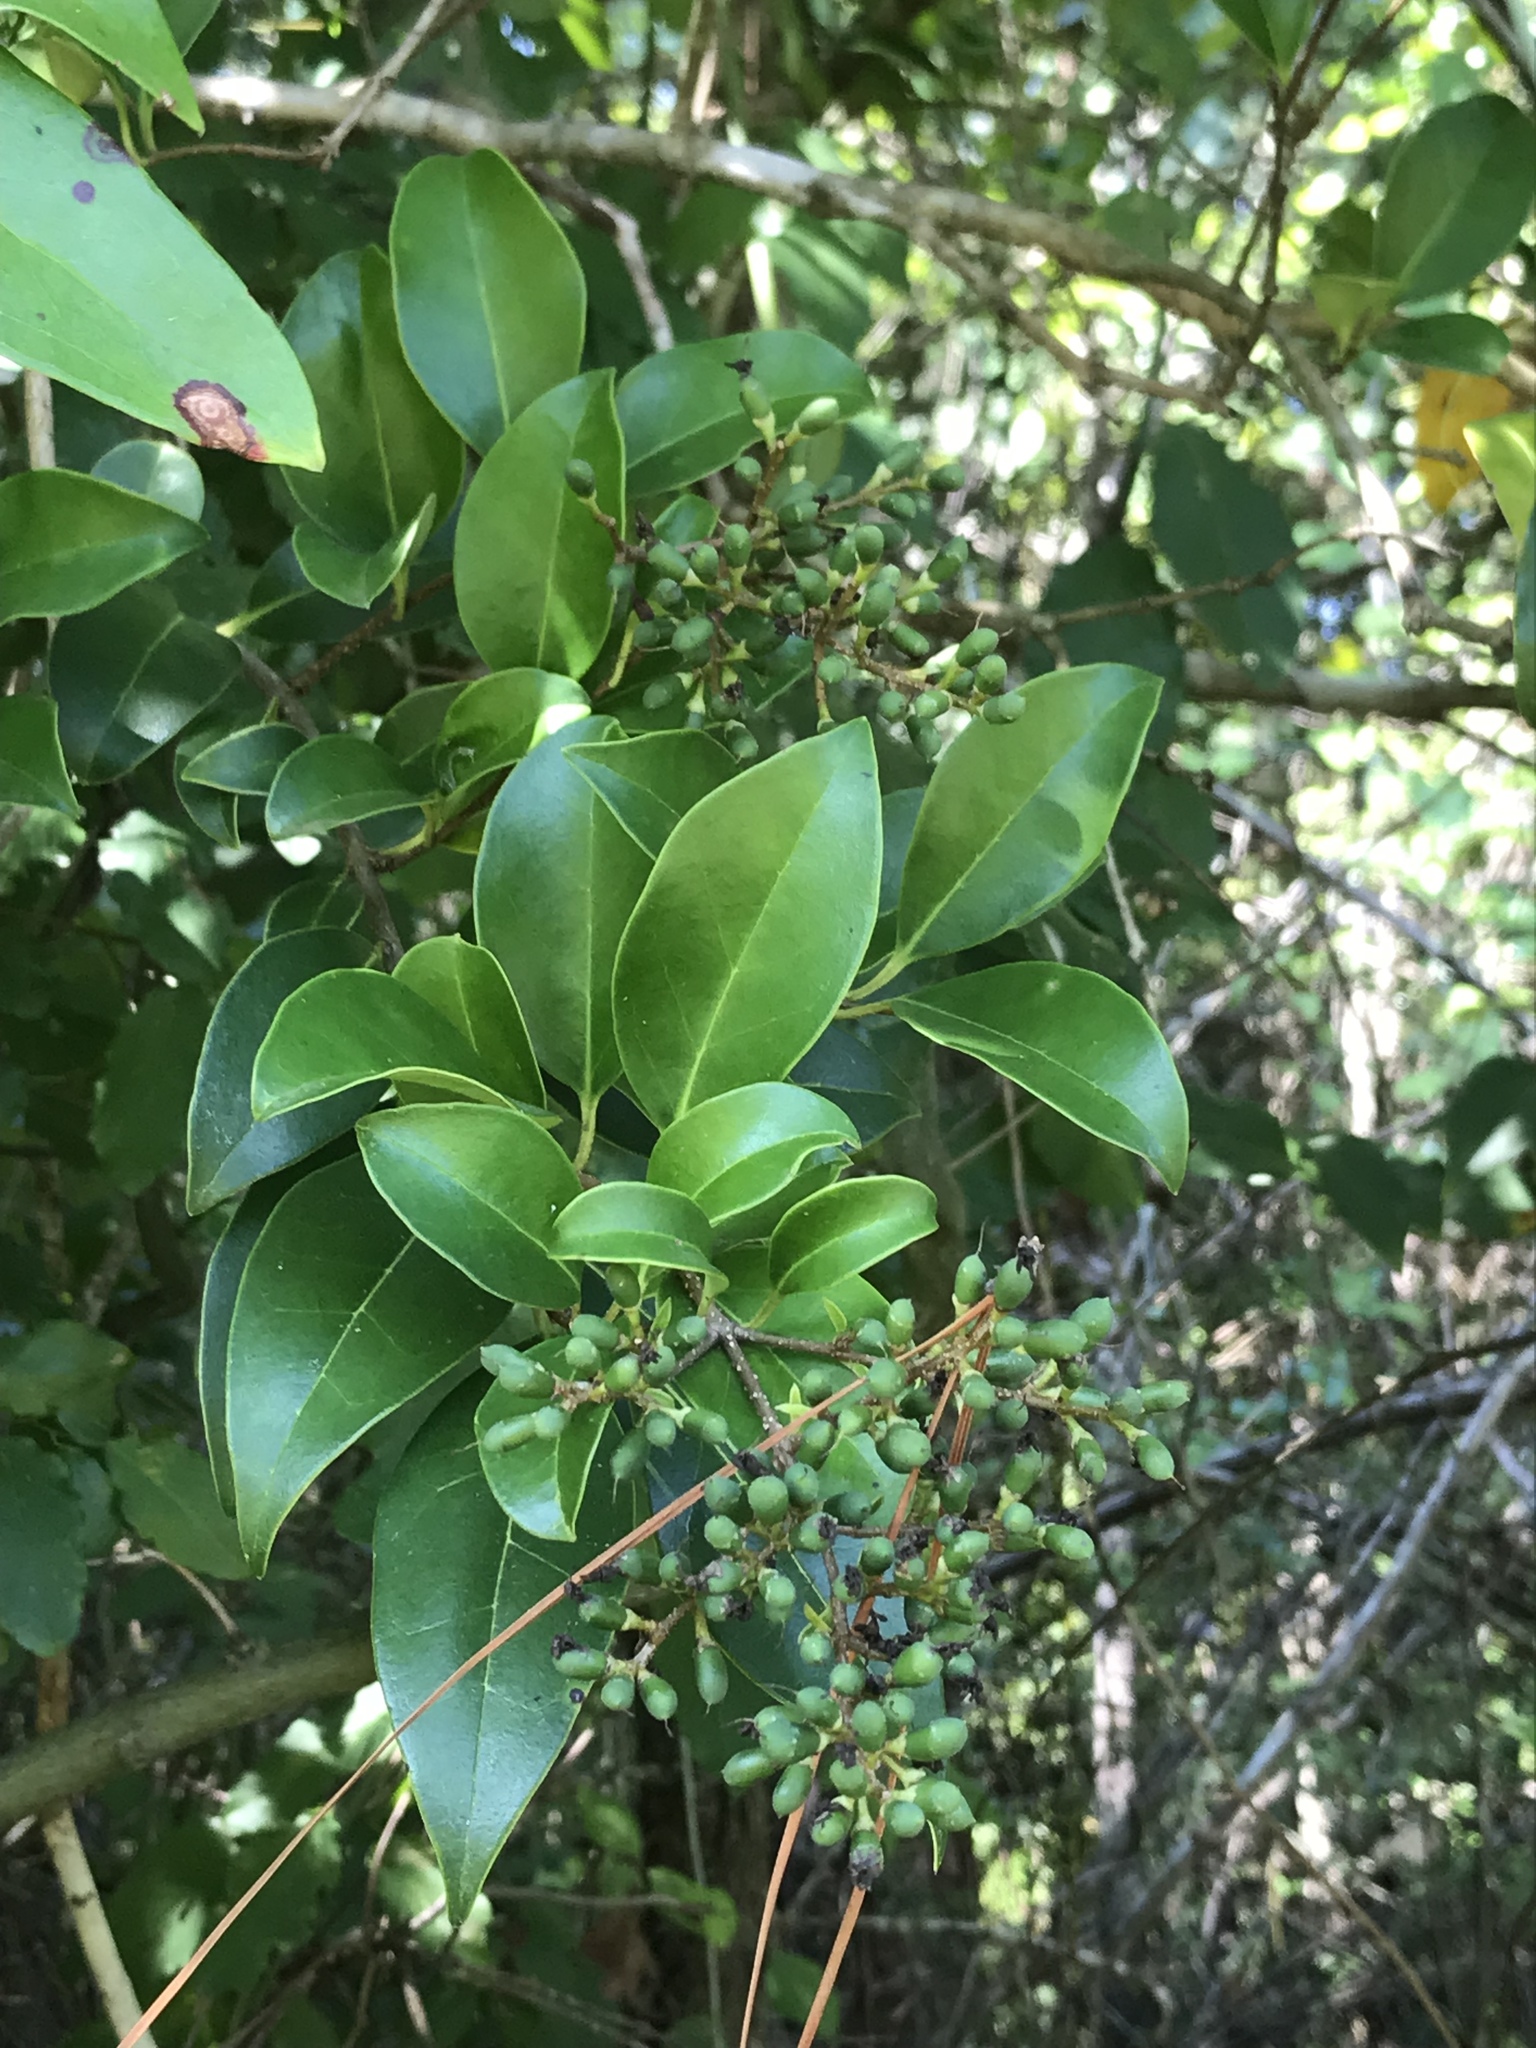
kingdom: Plantae
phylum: Tracheophyta
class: Magnoliopsida
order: Lamiales
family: Oleaceae
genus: Ligustrum
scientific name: Ligustrum lucidum
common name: Glossy privet
